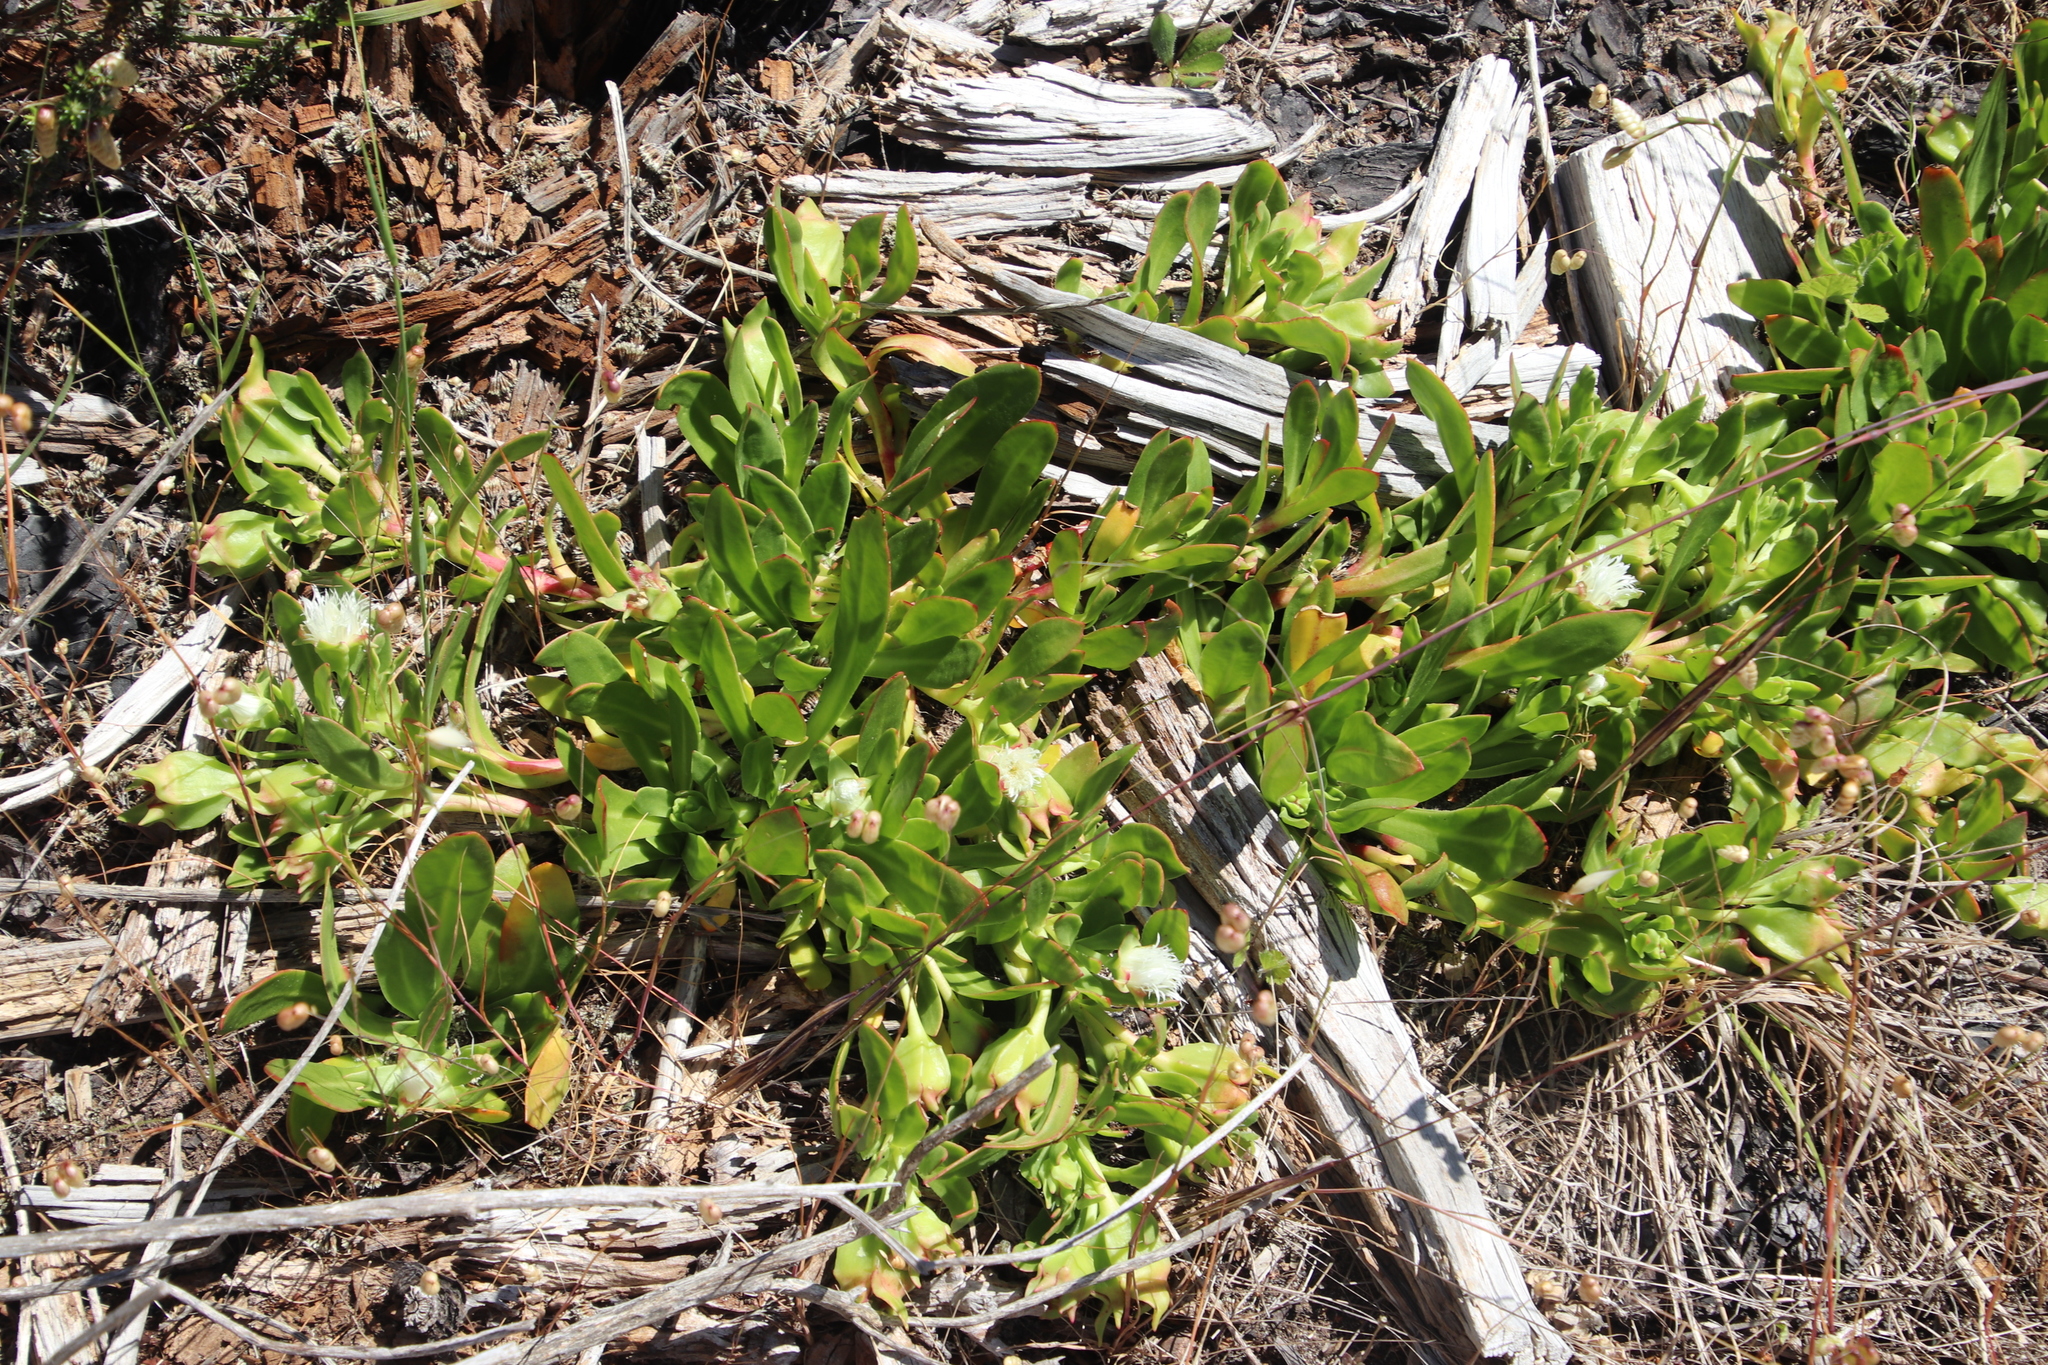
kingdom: Plantae
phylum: Tracheophyta
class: Magnoliopsida
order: Caryophyllales
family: Aizoaceae
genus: Skiatophytum
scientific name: Skiatophytum tripolium
